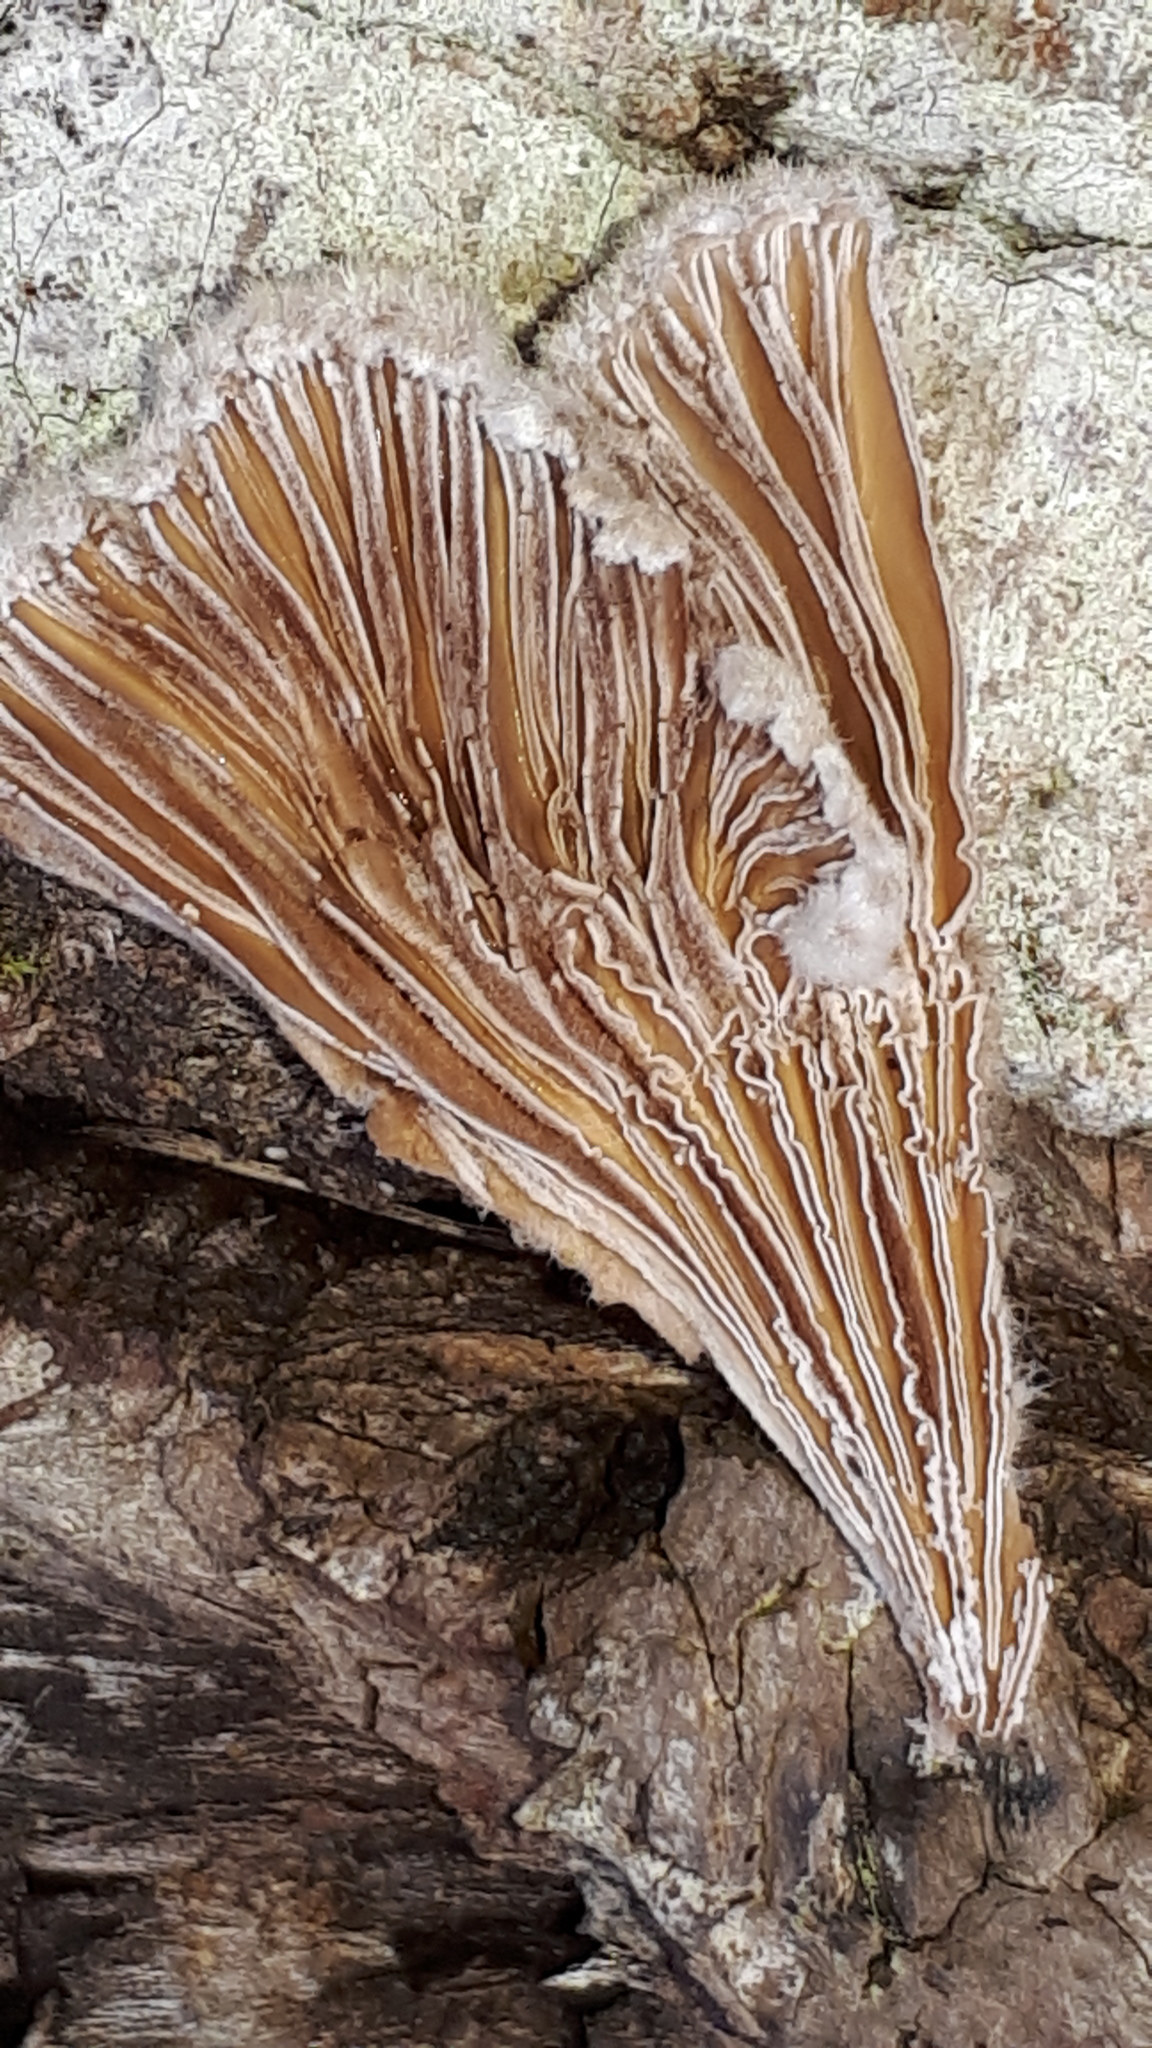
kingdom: Fungi
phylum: Basidiomycota
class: Agaricomycetes
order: Agaricales
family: Schizophyllaceae
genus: Schizophyllum
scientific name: Schizophyllum commune
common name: Common porecrust
